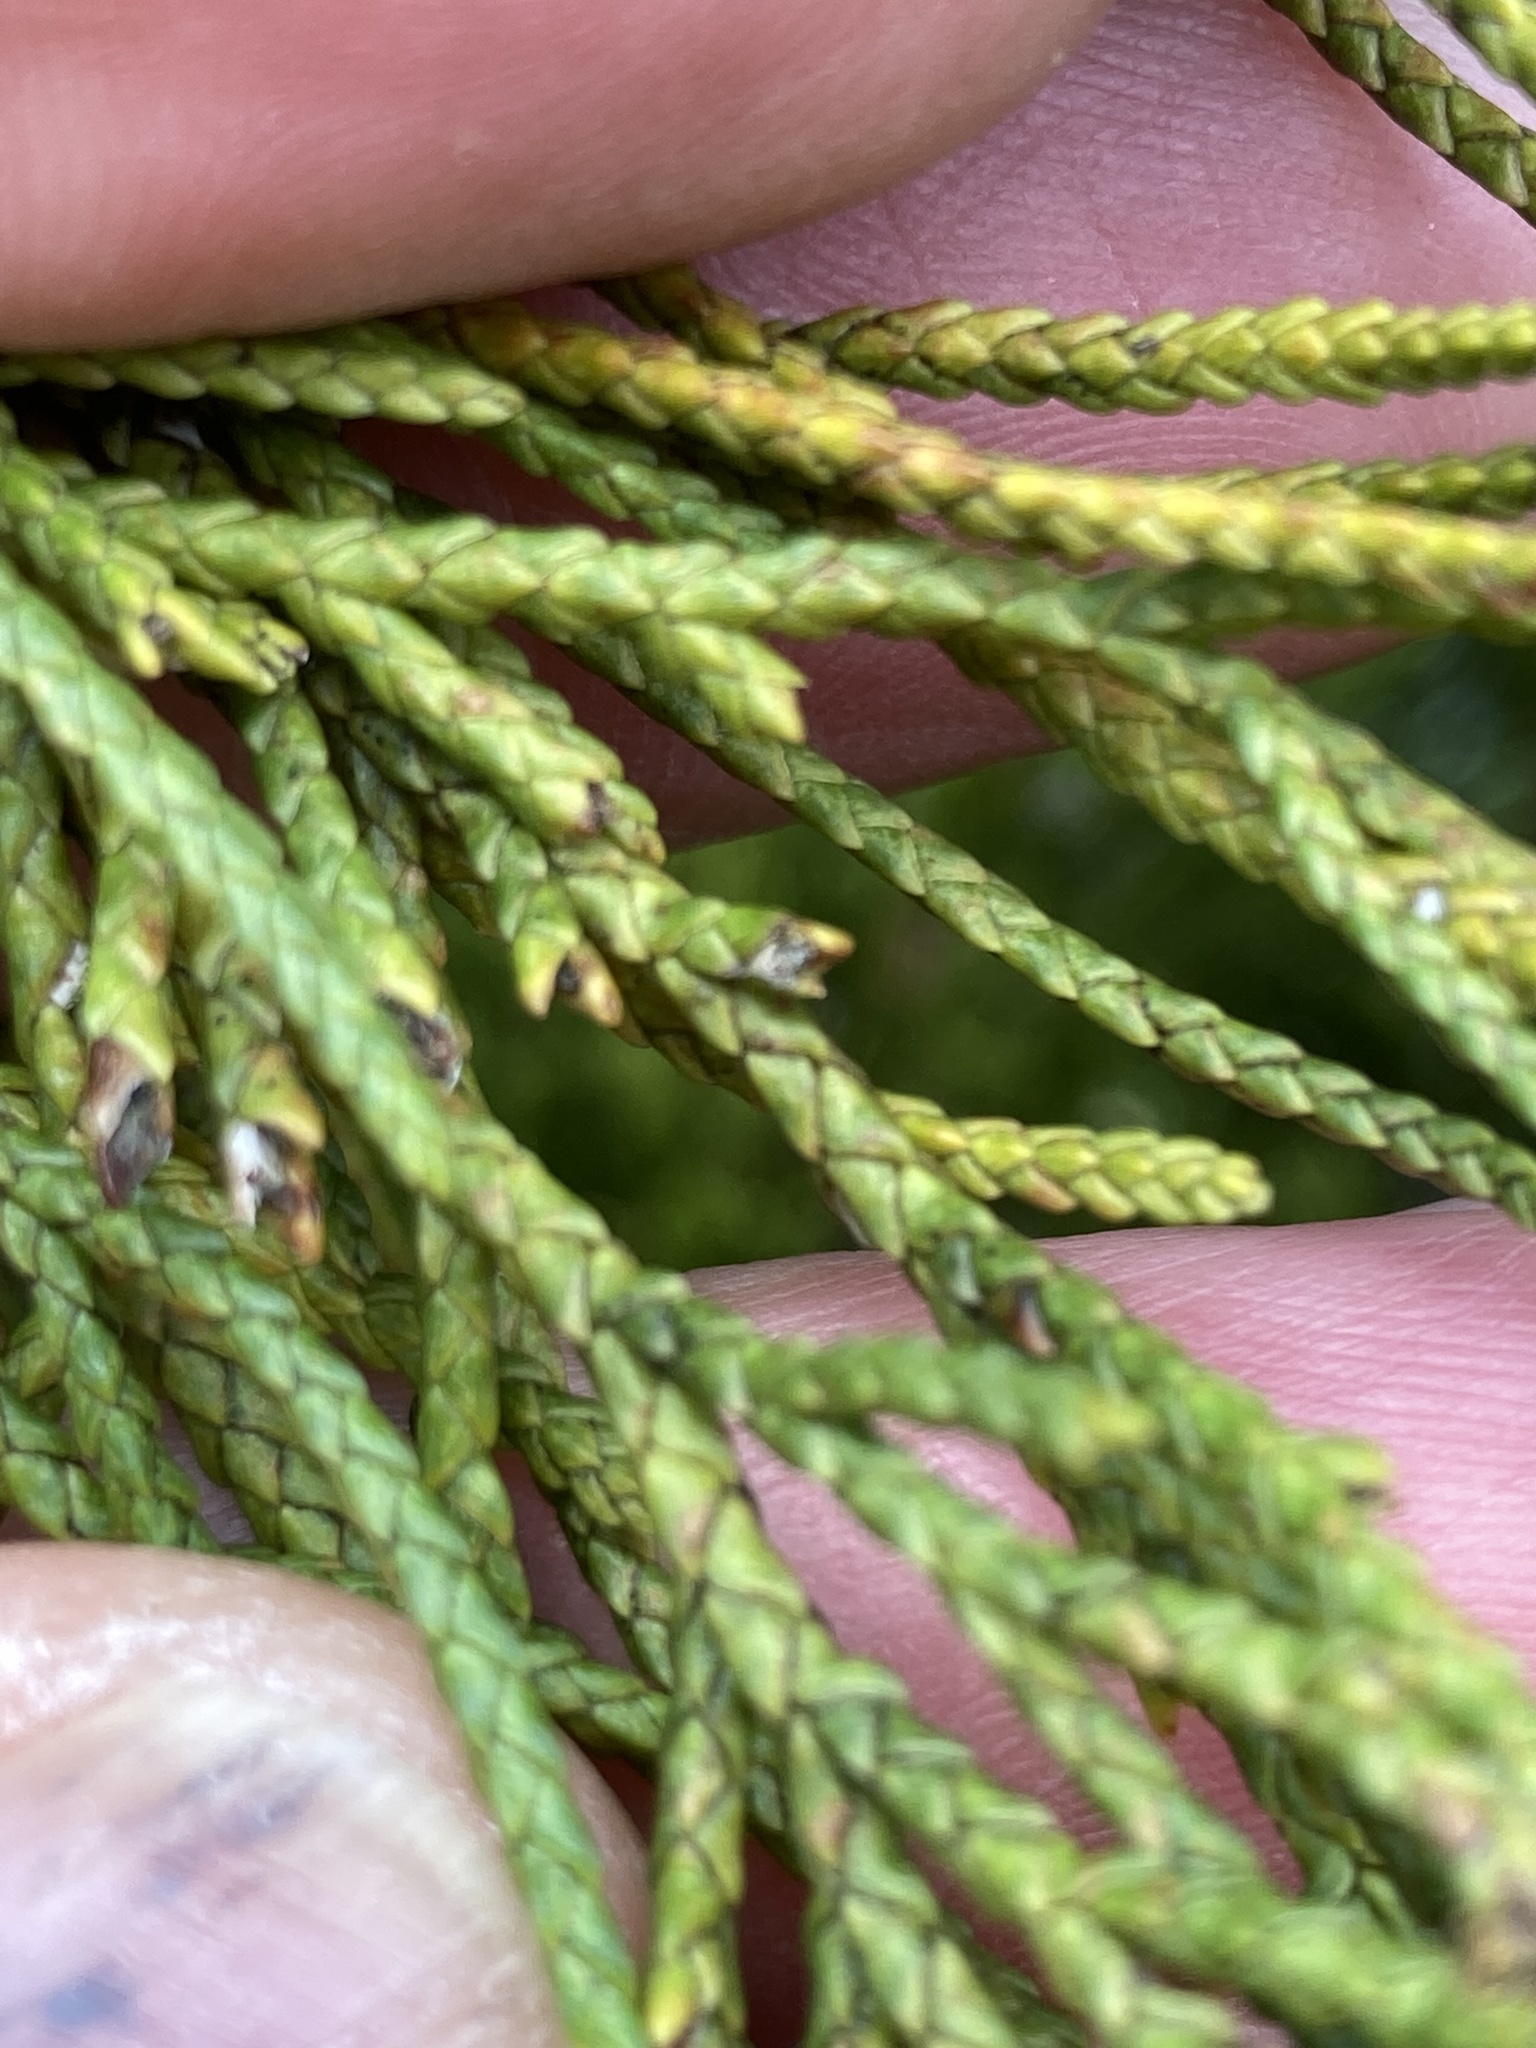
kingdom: Plantae
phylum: Tracheophyta
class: Pinopsida
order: Pinales
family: Cupressaceae
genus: Libocedrus
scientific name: Libocedrus bidwillii
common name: Cedar
